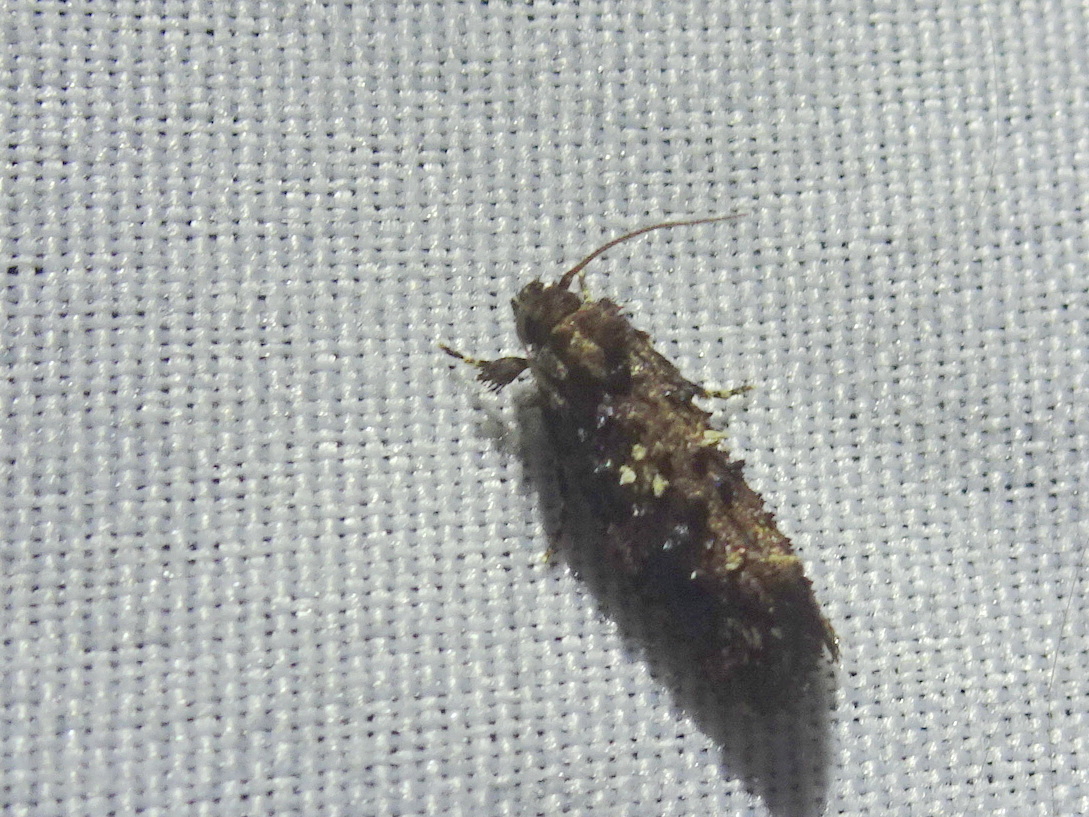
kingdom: Animalia
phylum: Arthropoda
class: Insecta
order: Lepidoptera
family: Tineidae
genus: Acrolophus
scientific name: Acrolophus cressoni
